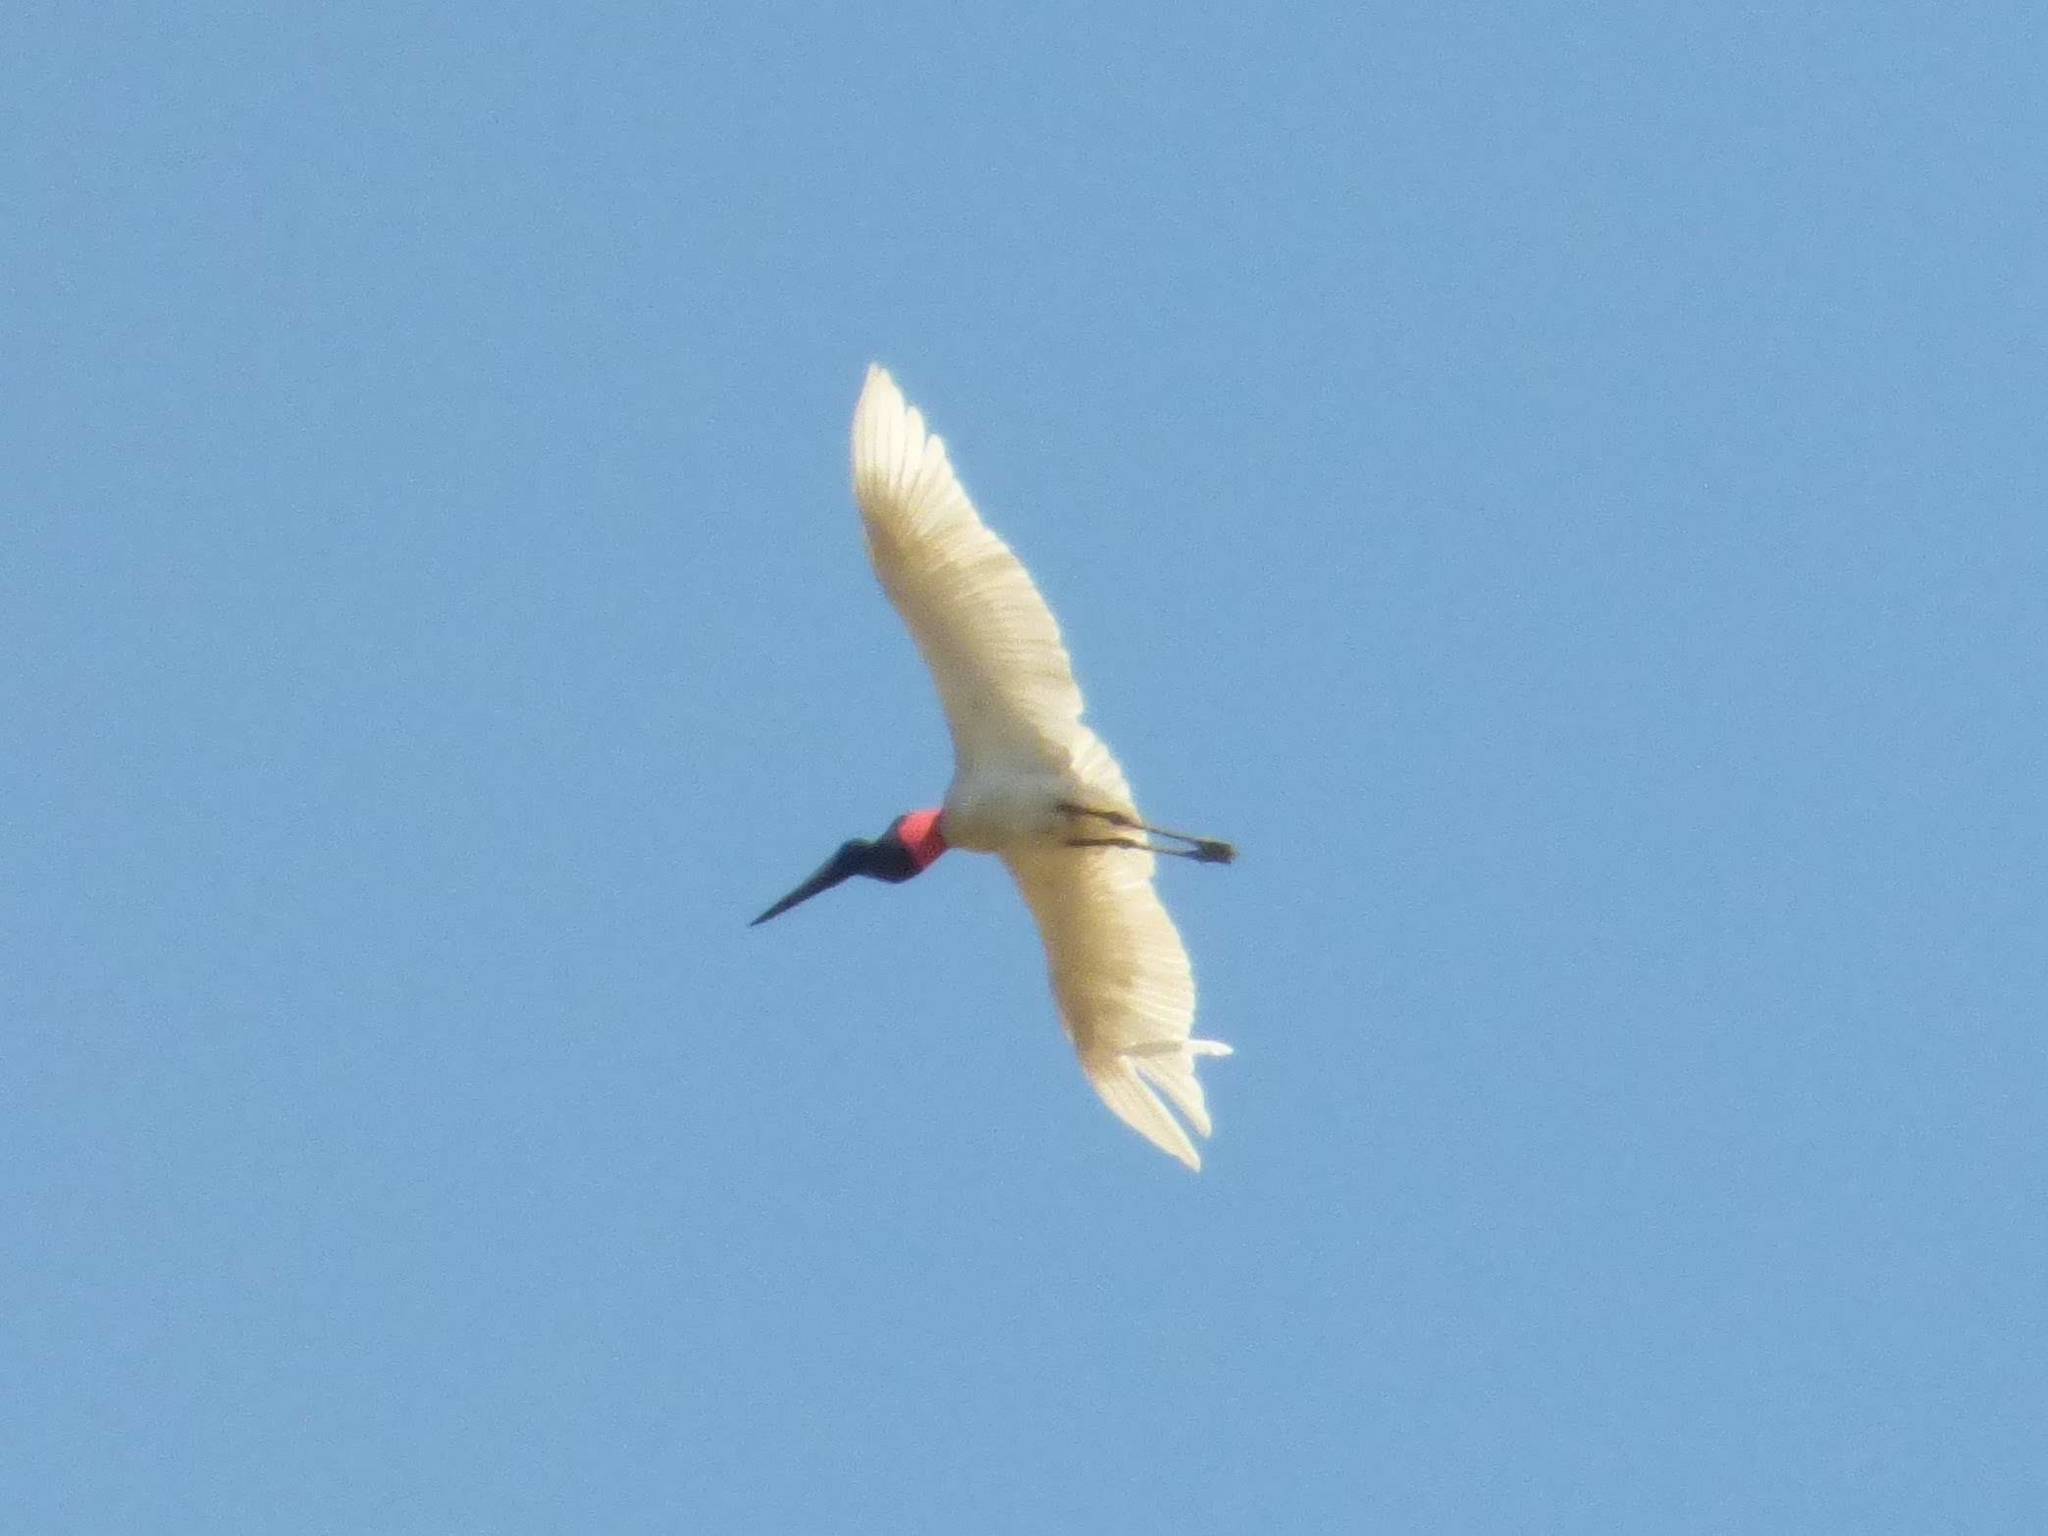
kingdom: Animalia
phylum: Chordata
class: Aves
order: Ciconiiformes
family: Ciconiidae
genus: Jabiru
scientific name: Jabiru mycteria
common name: Jabiru
